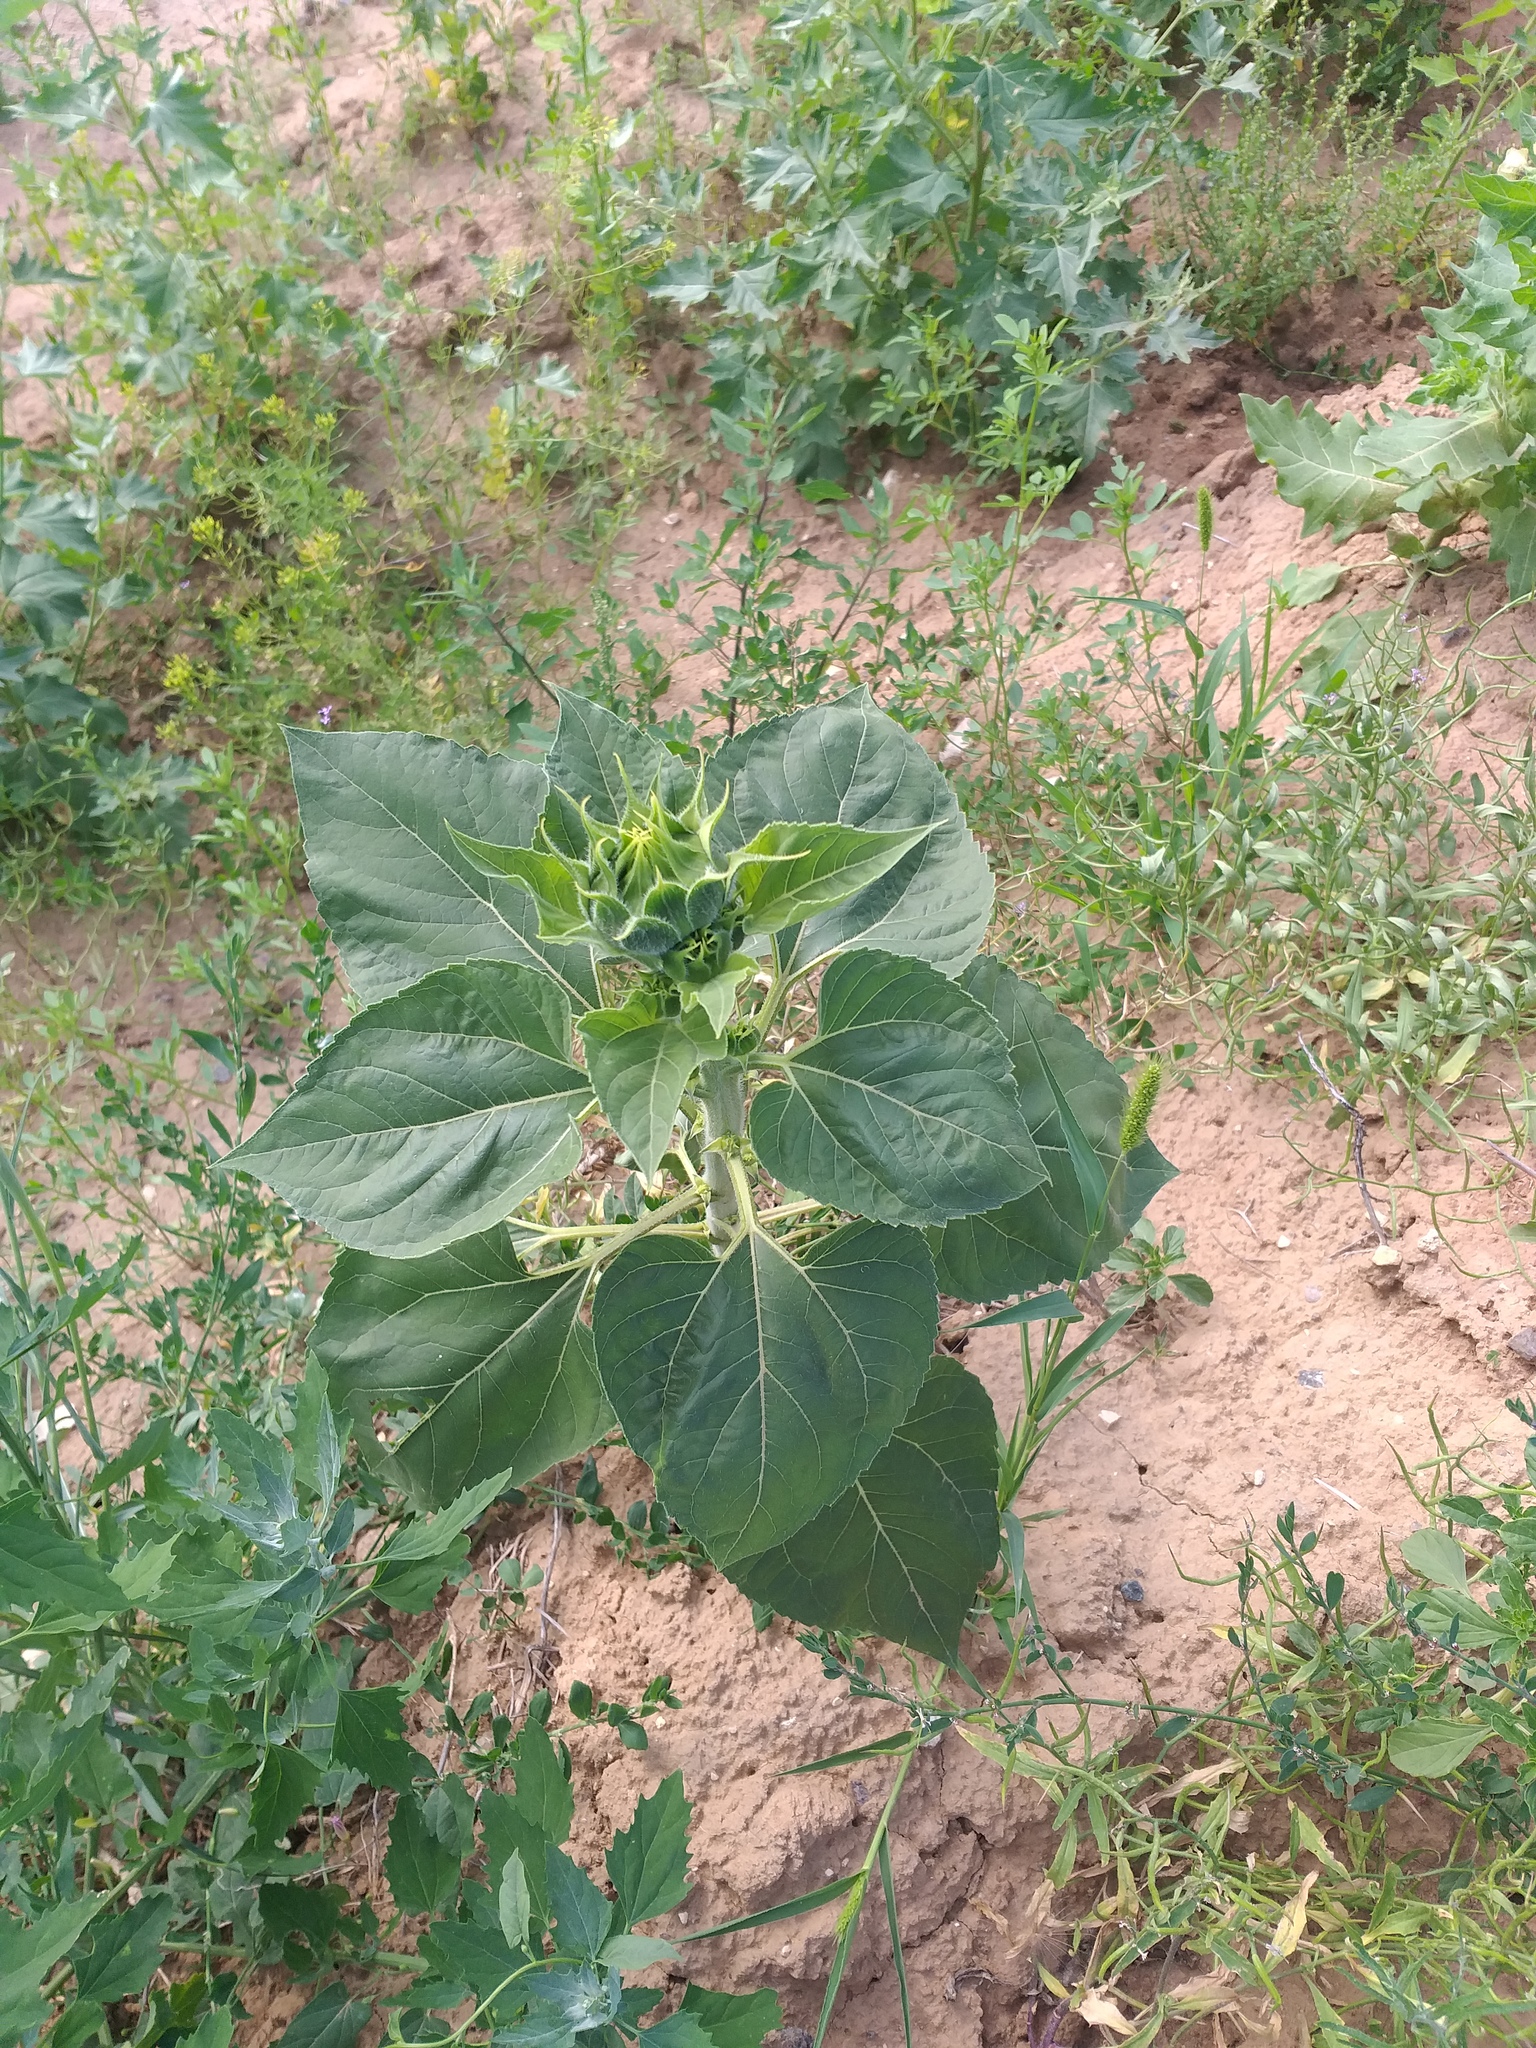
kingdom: Plantae
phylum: Tracheophyta
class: Magnoliopsida
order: Asterales
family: Asteraceae
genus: Helianthus
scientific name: Helianthus annuus
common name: Sunflower
